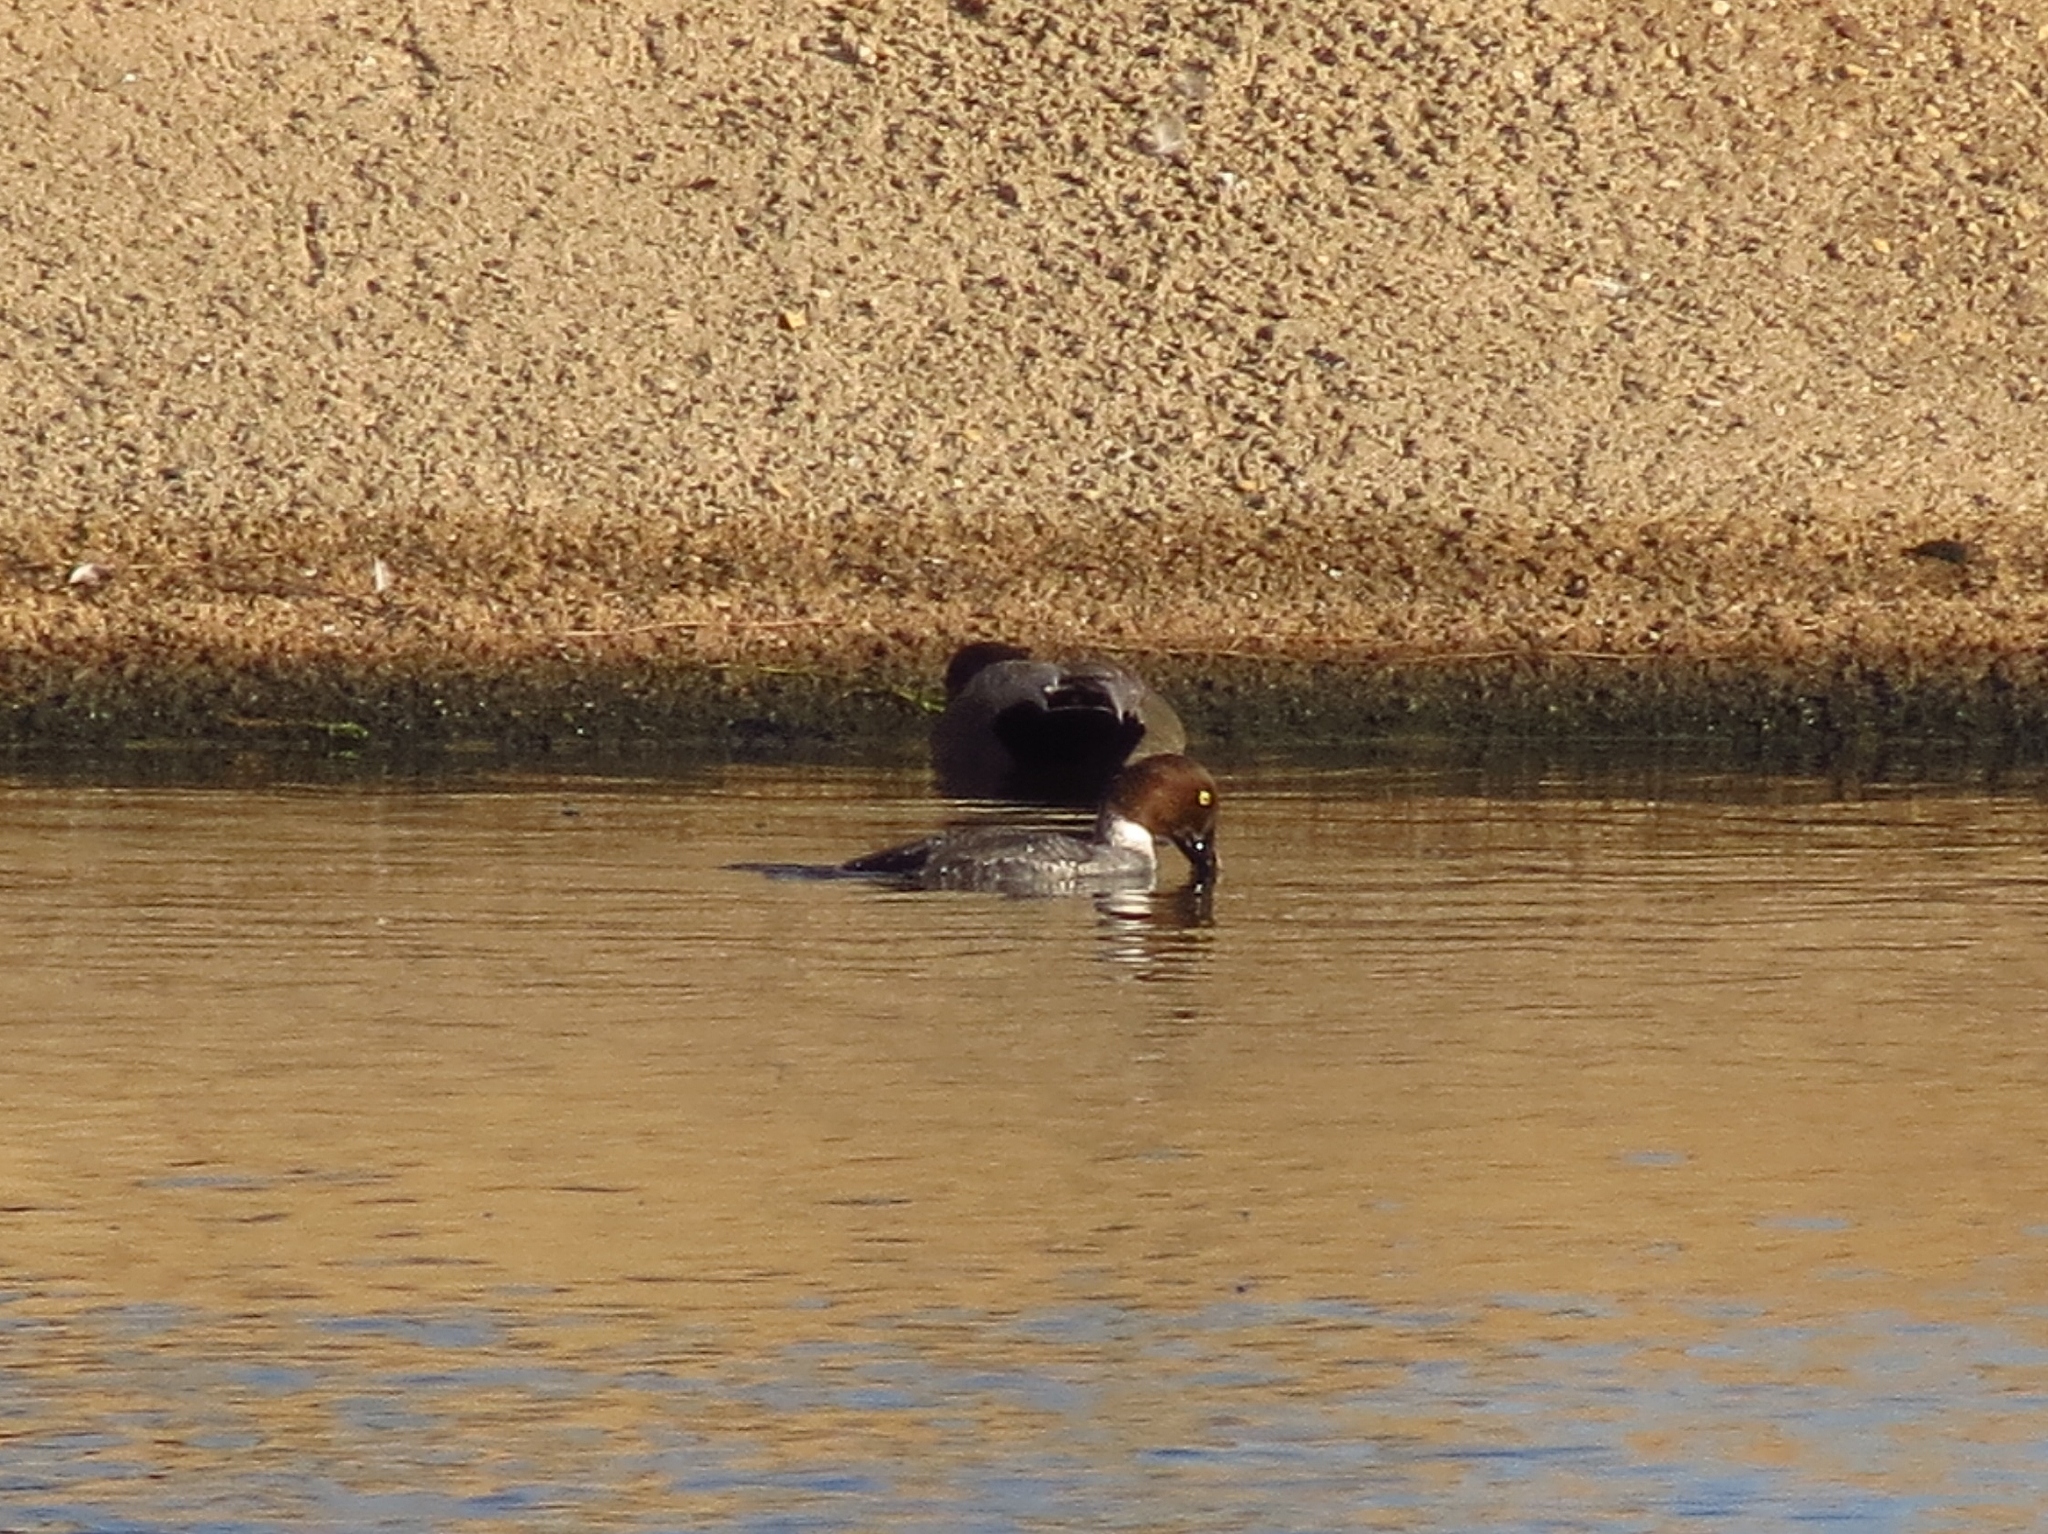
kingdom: Animalia
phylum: Chordata
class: Aves
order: Anseriformes
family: Anatidae
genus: Bucephala
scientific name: Bucephala clangula
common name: Common goldeneye
